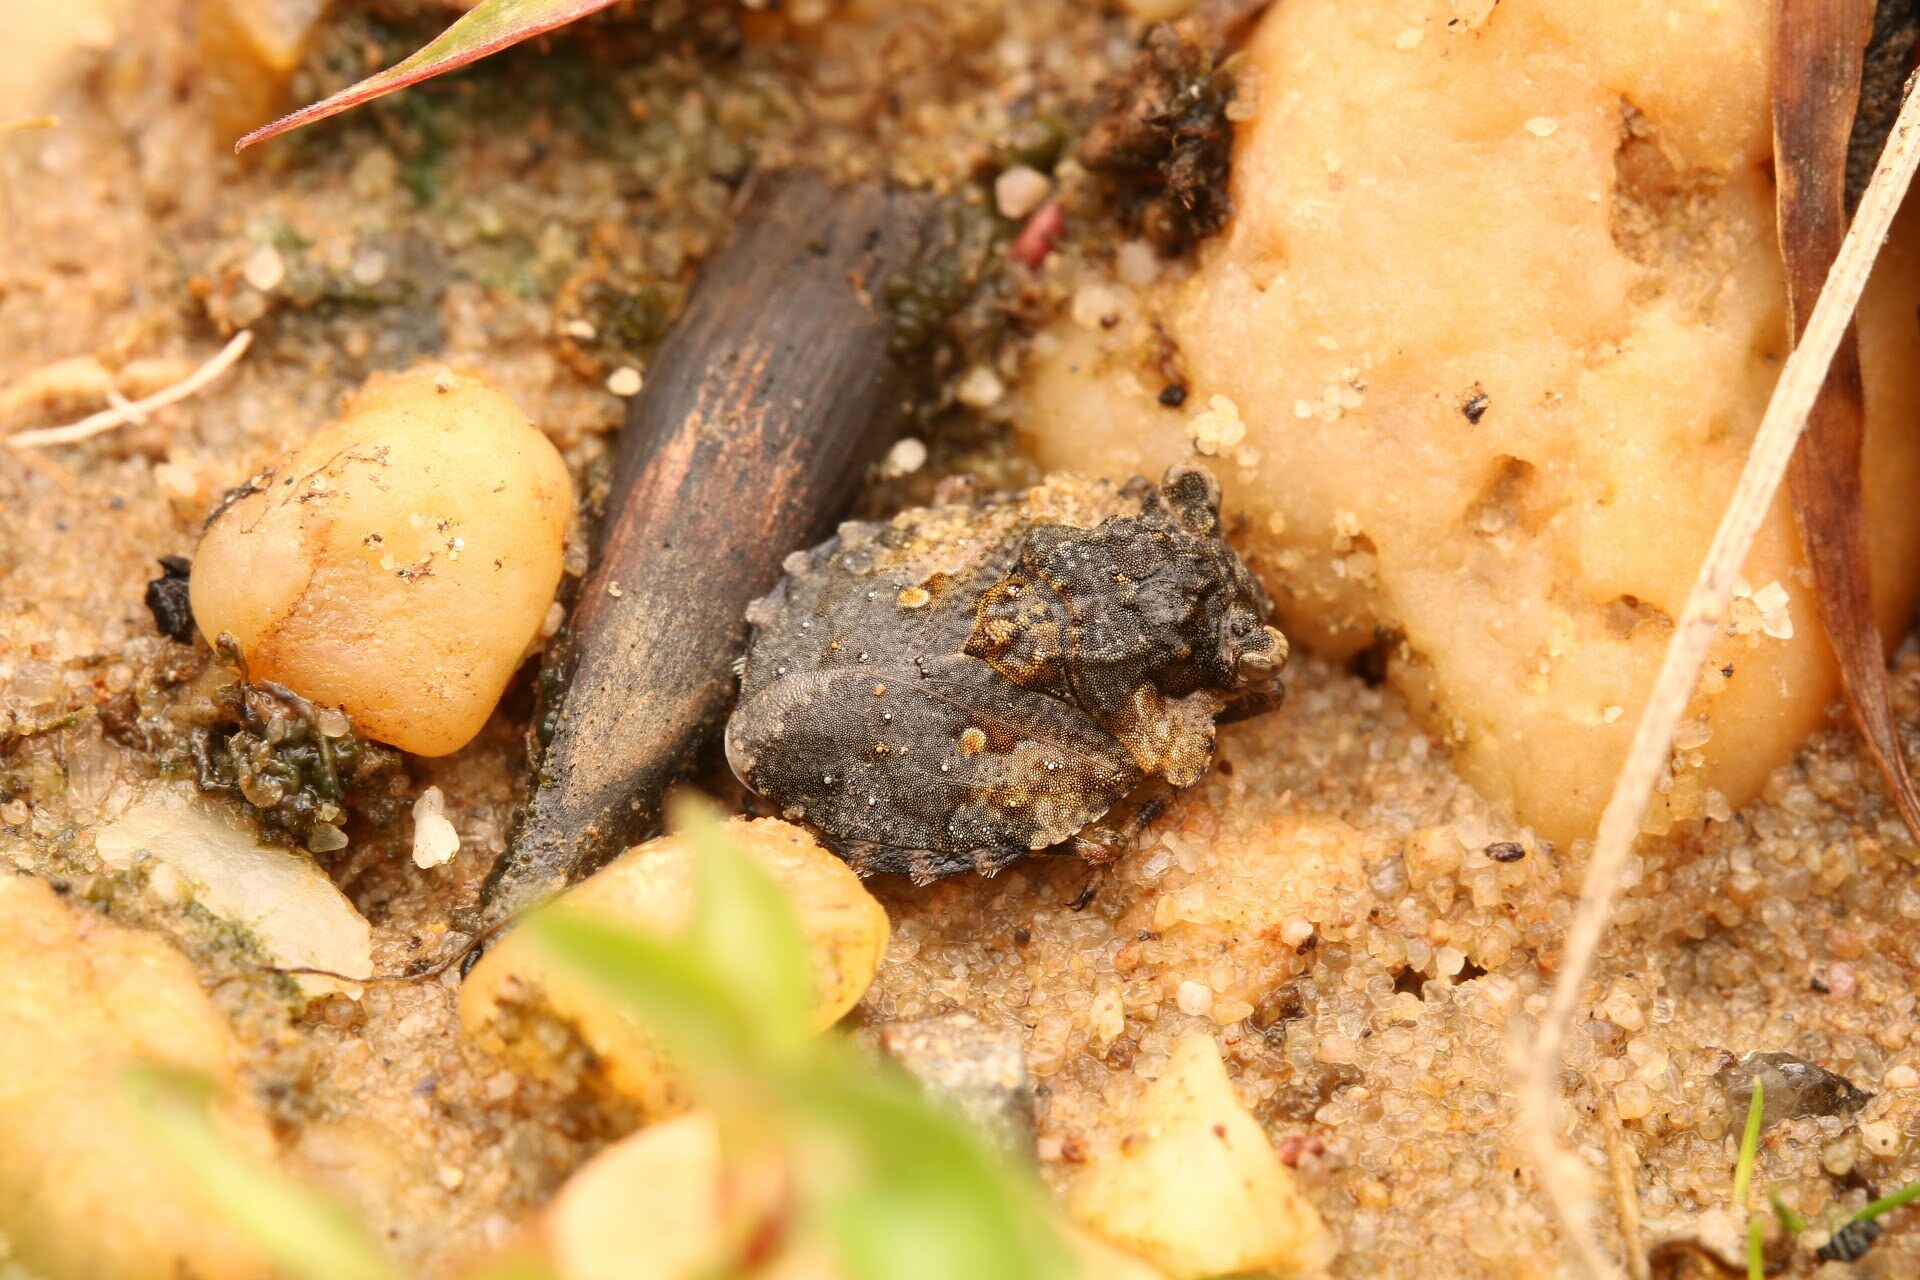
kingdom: Animalia
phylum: Arthropoda
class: Insecta
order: Hemiptera
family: Gelastocoridae
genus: Gelastocoris
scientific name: Gelastocoris oculatus
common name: Toad bug
